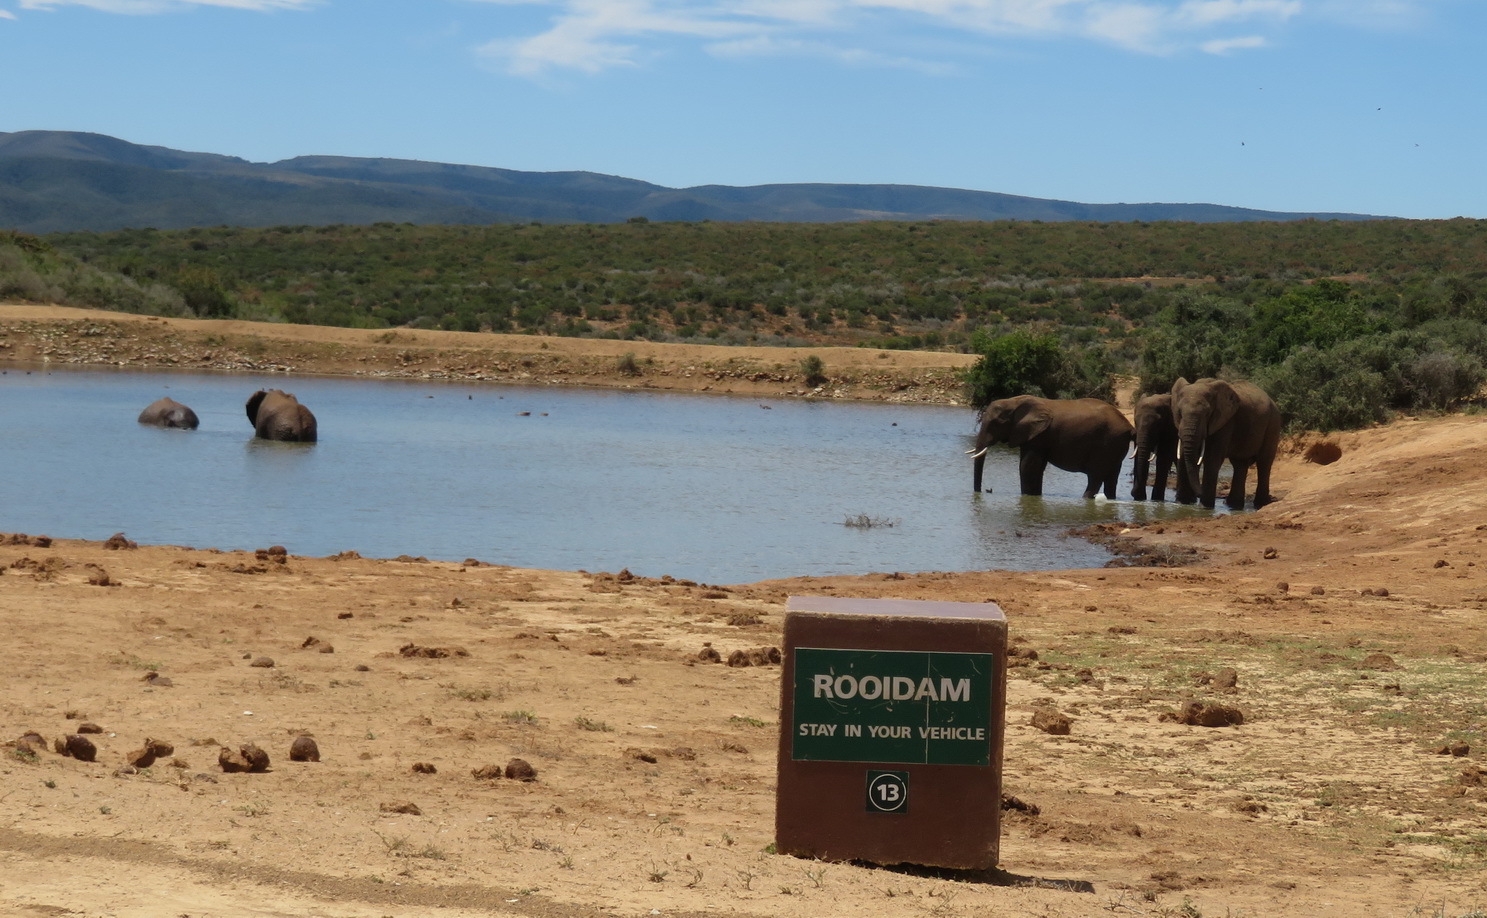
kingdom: Animalia
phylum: Chordata
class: Mammalia
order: Proboscidea
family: Elephantidae
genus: Loxodonta
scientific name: Loxodonta africana
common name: African elephant
